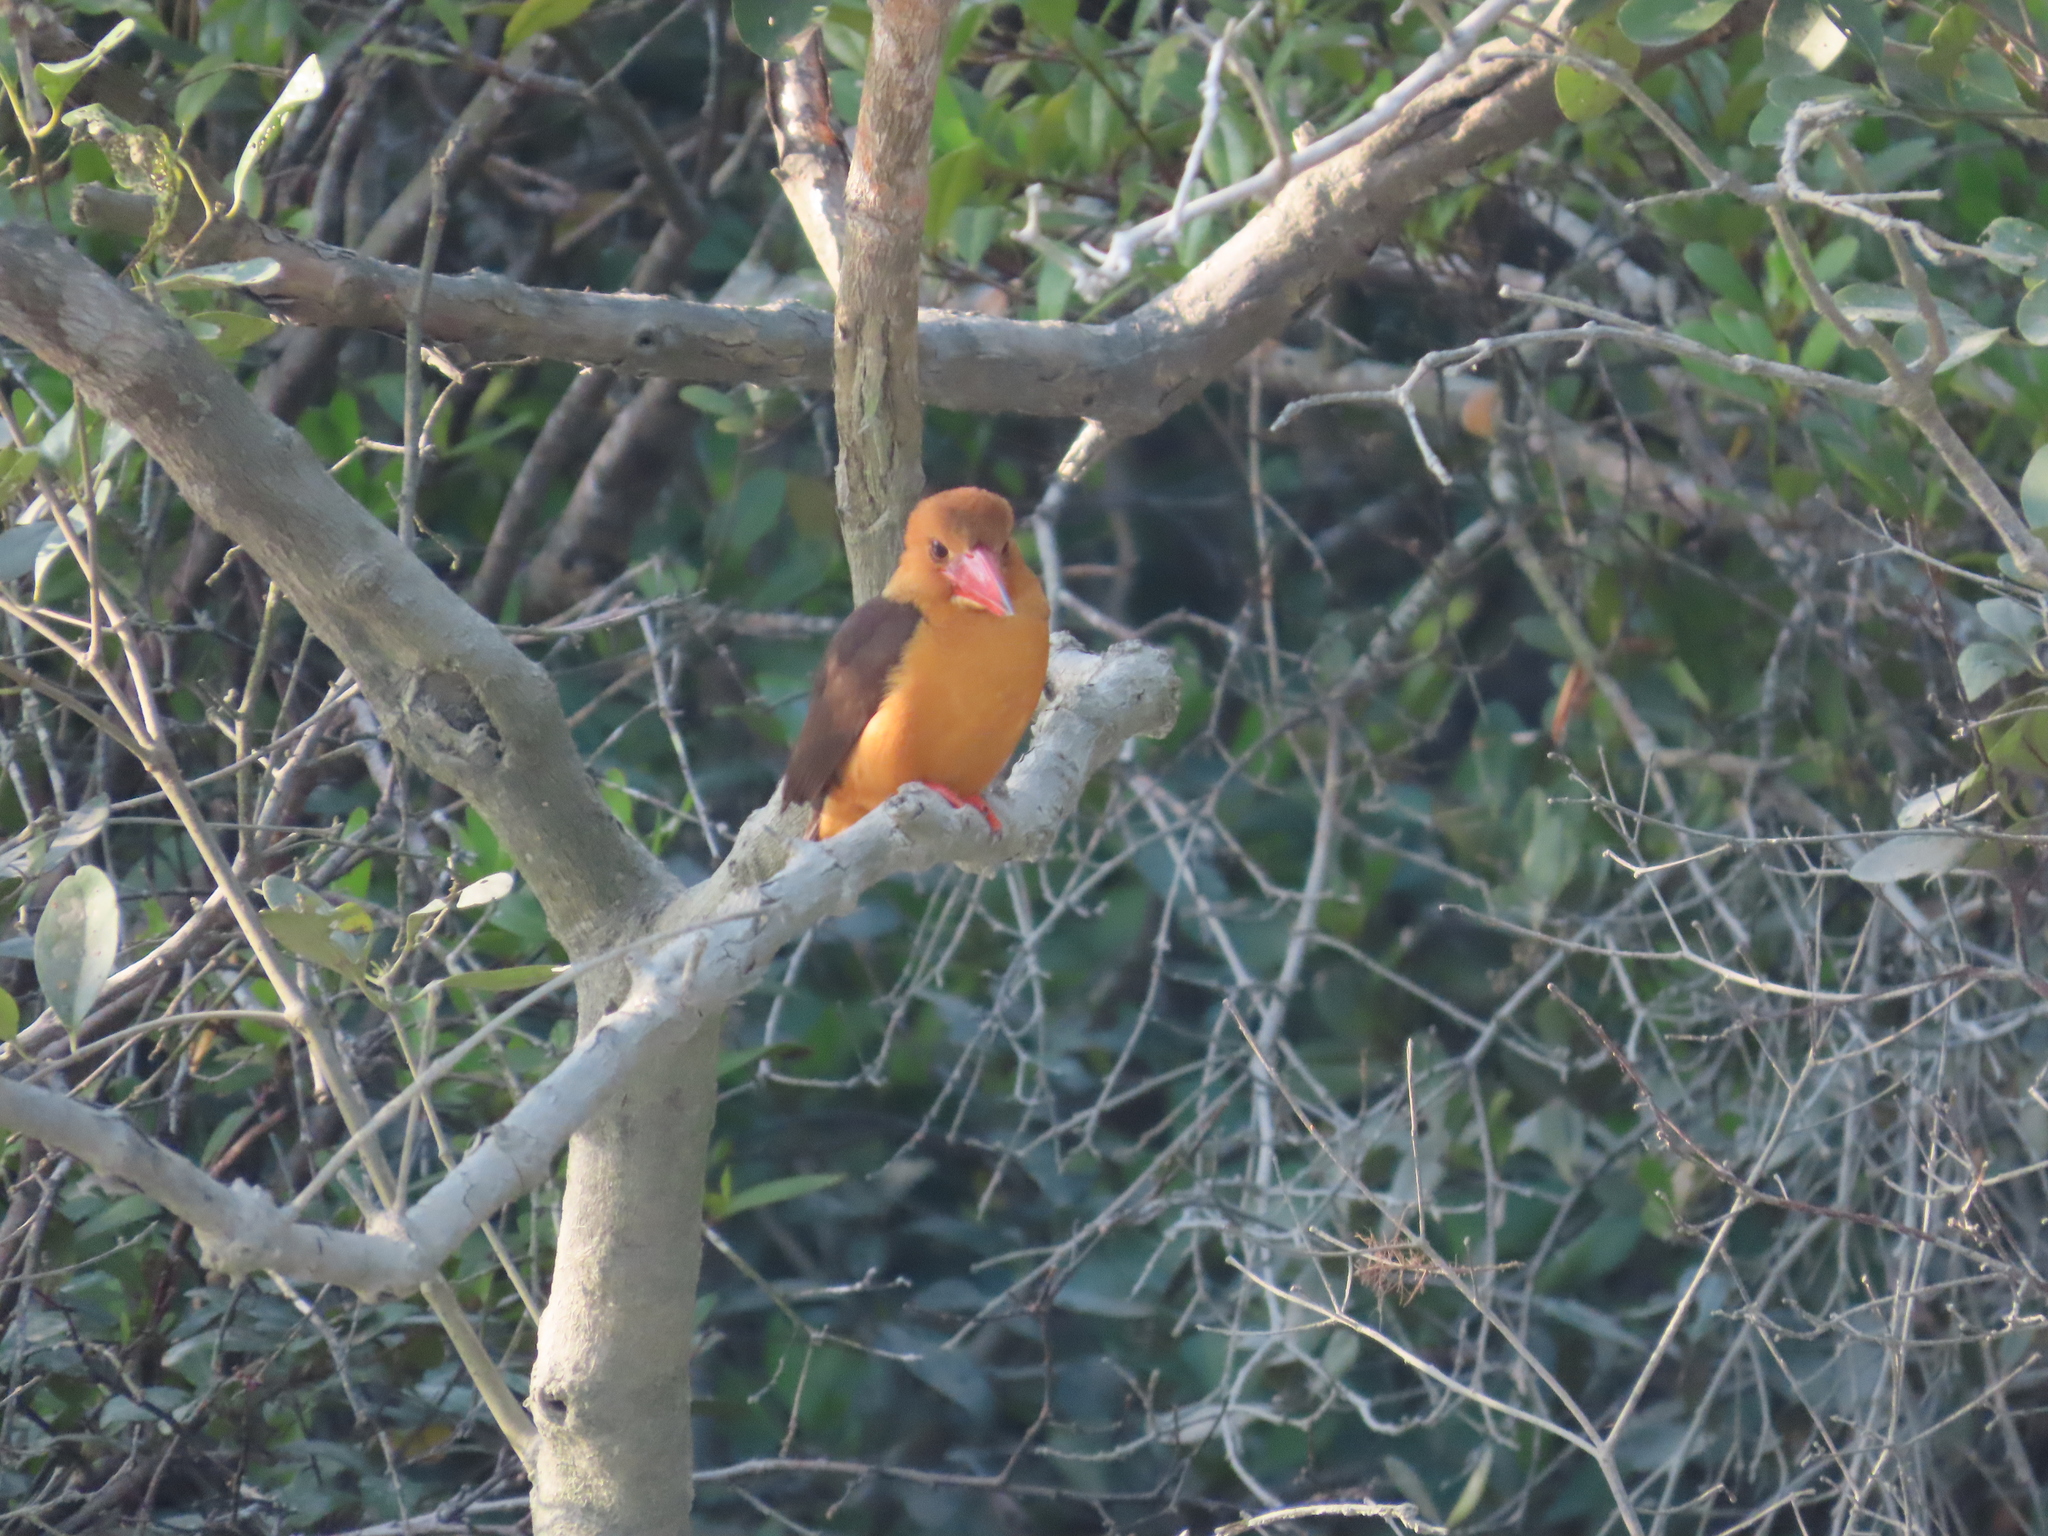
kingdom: Animalia
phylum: Chordata
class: Aves
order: Coraciiformes
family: Alcedinidae
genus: Pelargopsis
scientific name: Pelargopsis amauroptera
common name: Brown-winged kingfisher
